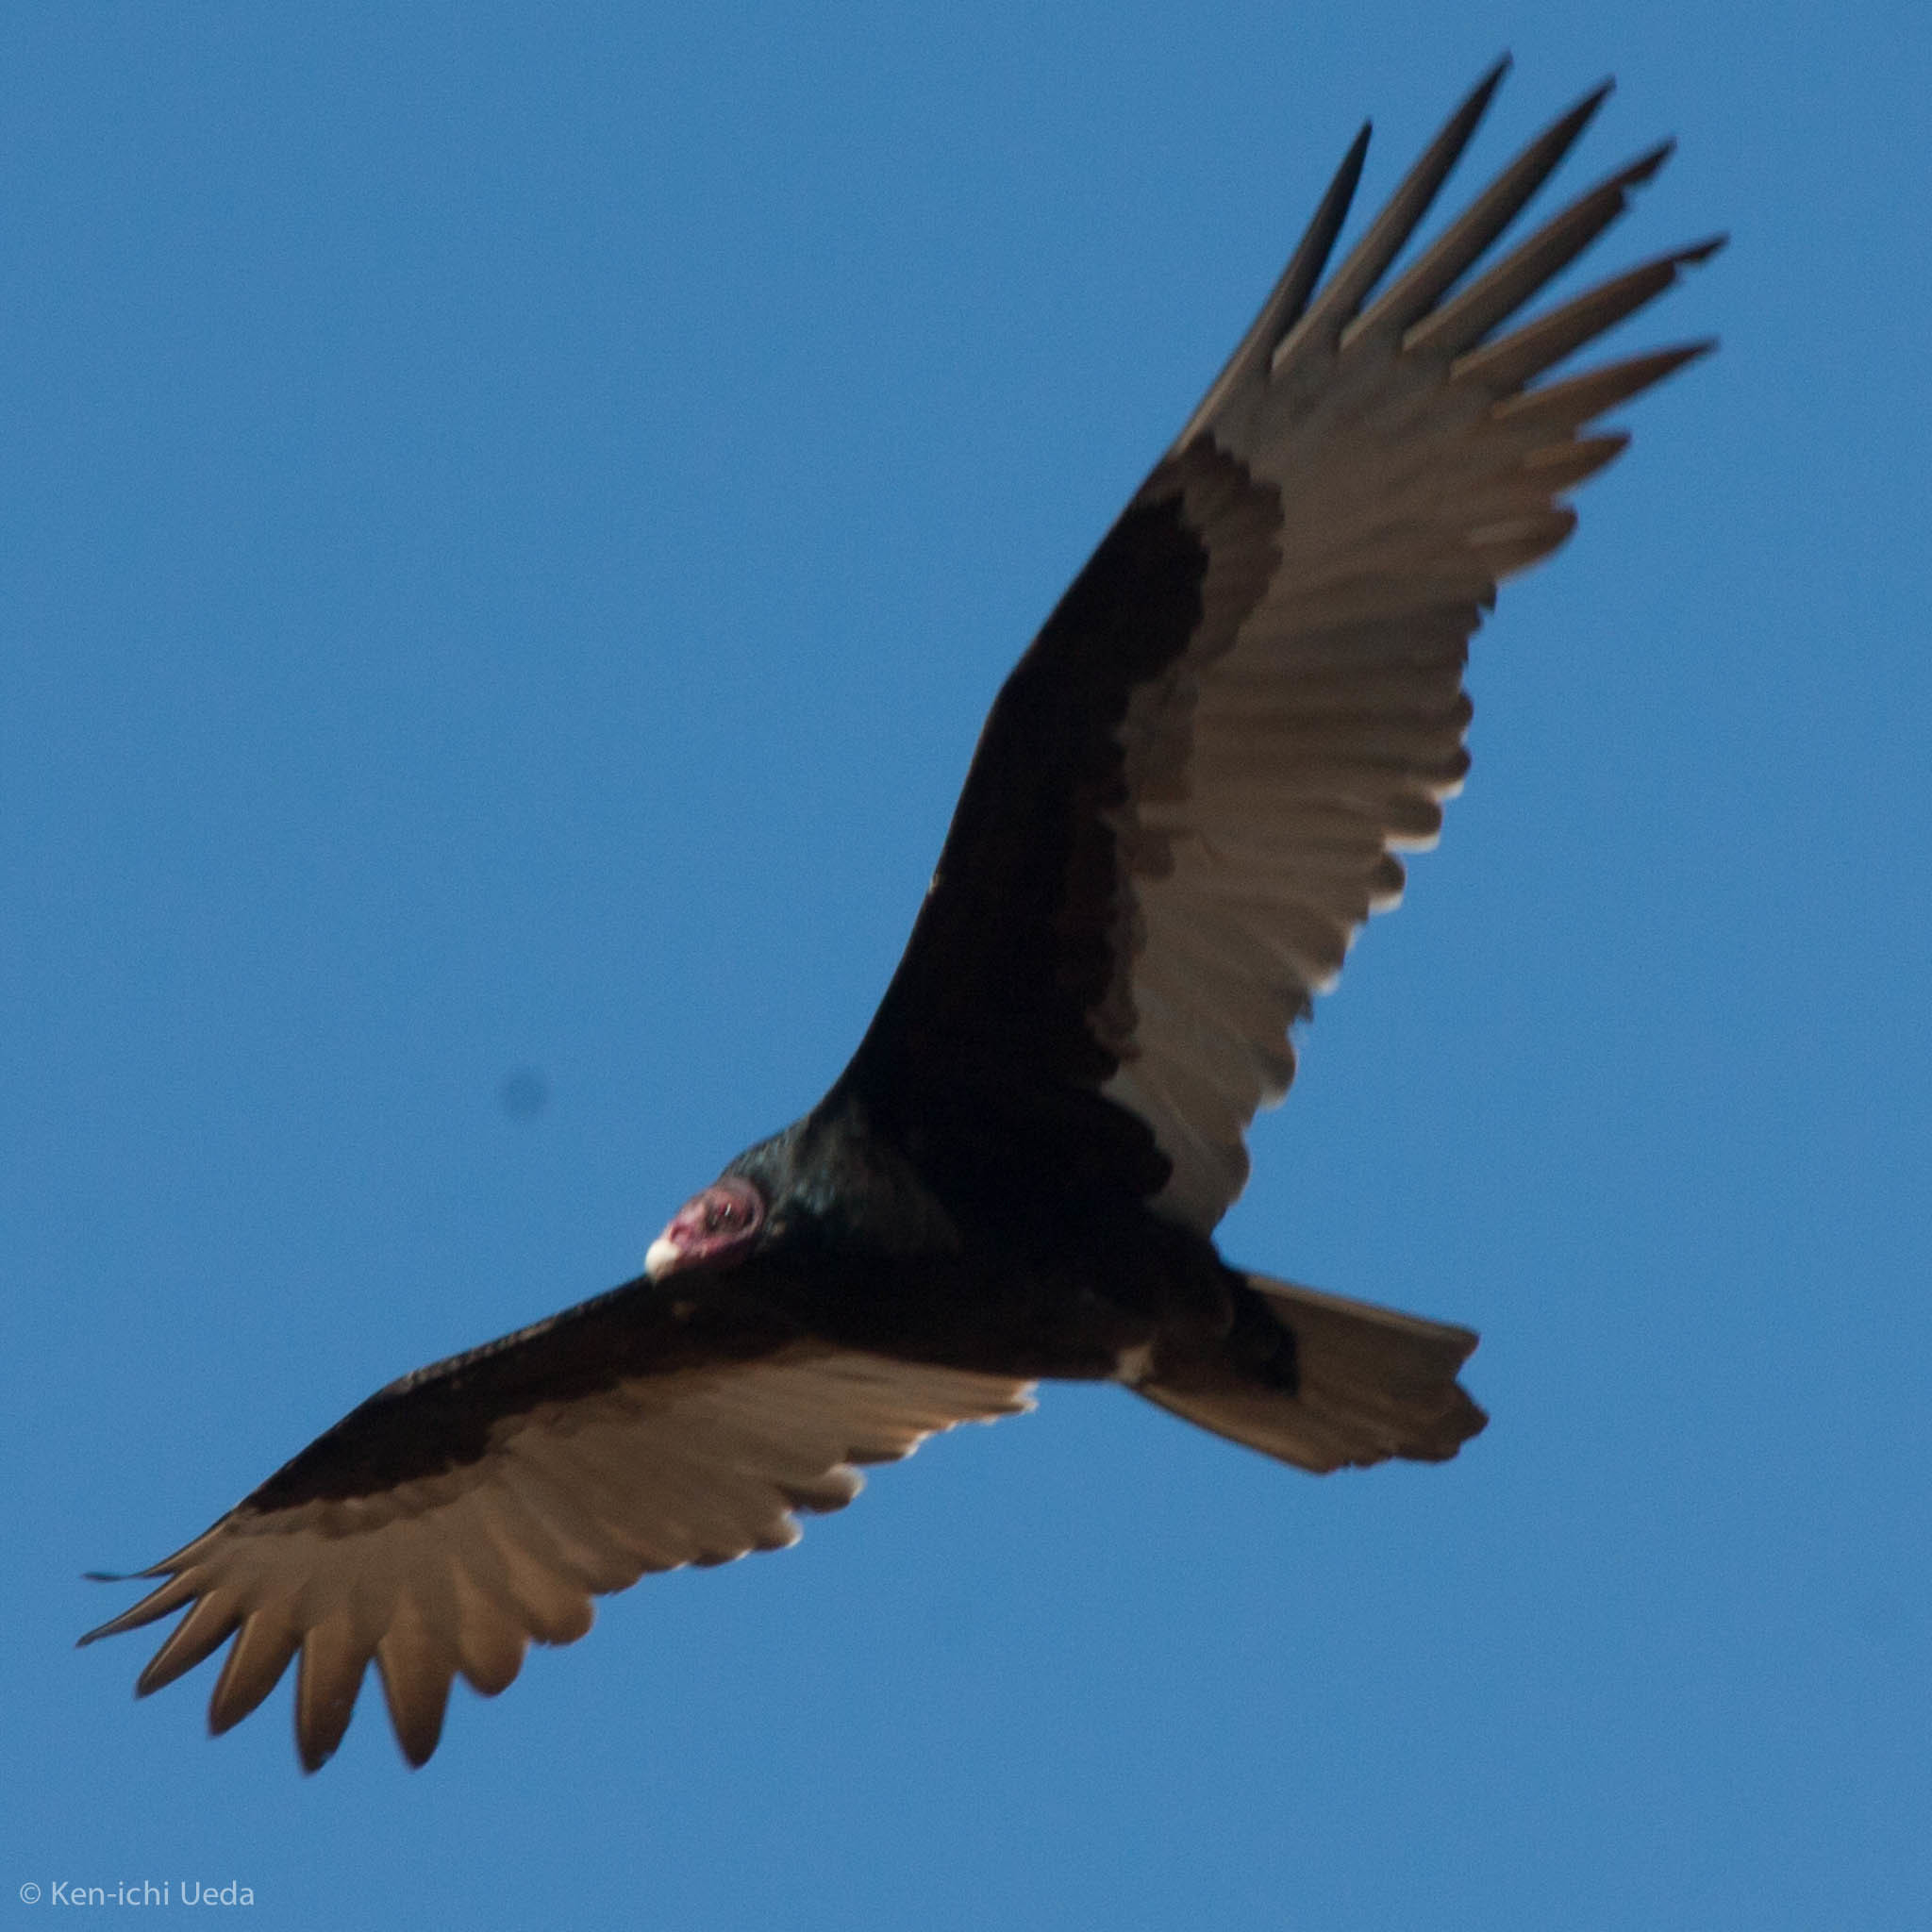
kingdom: Animalia
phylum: Chordata
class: Aves
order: Accipitriformes
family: Cathartidae
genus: Cathartes
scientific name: Cathartes aura
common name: Turkey vulture
